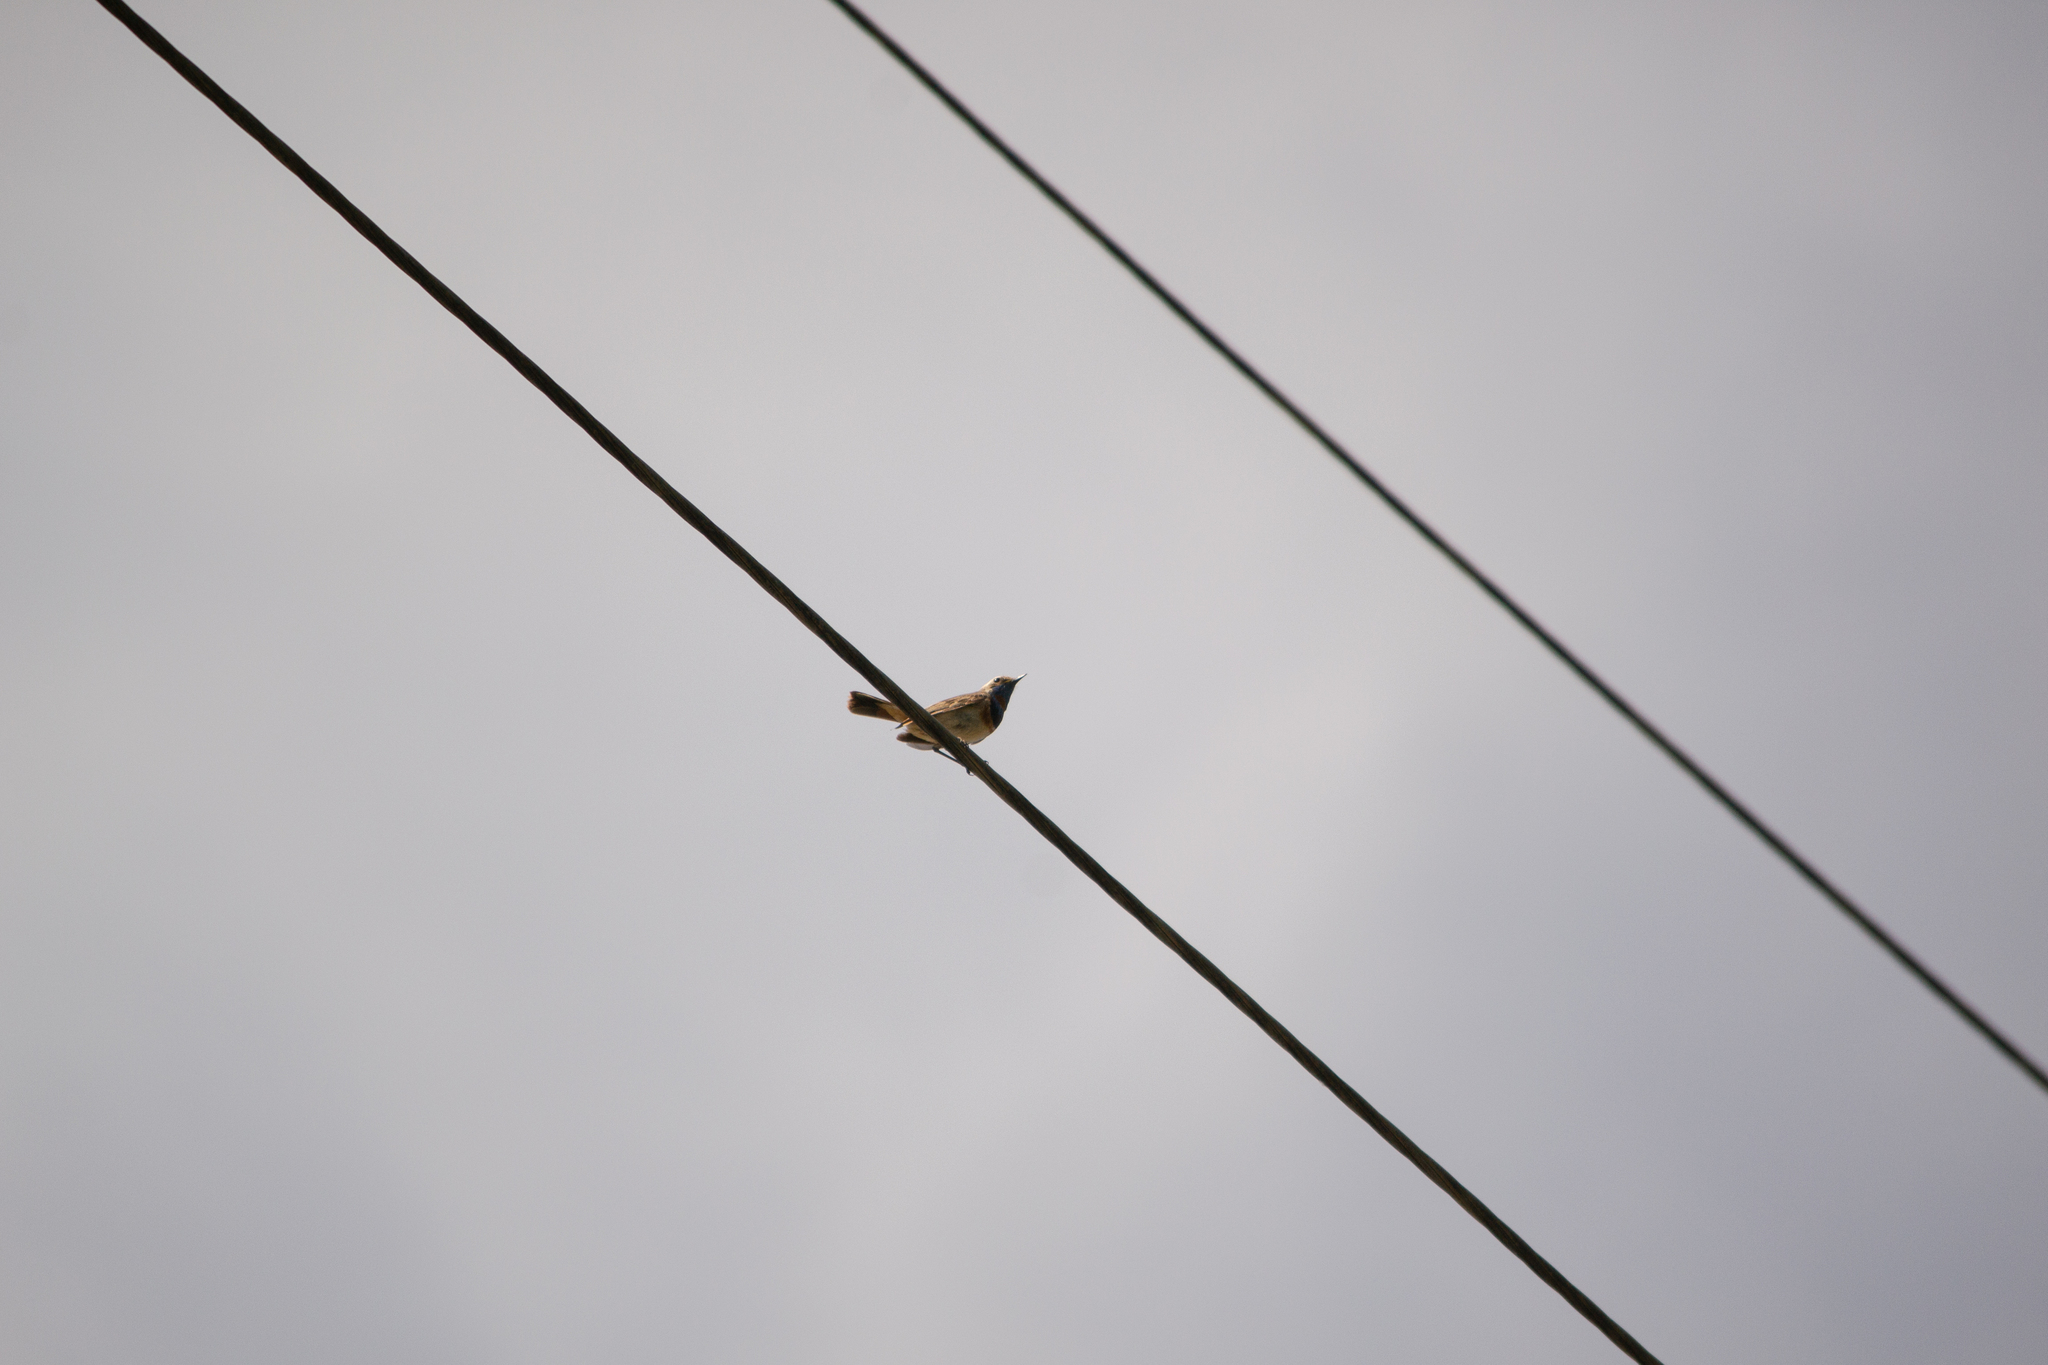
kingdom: Animalia
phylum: Chordata
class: Aves
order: Passeriformes
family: Muscicapidae
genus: Luscinia
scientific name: Luscinia svecica
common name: Bluethroat
